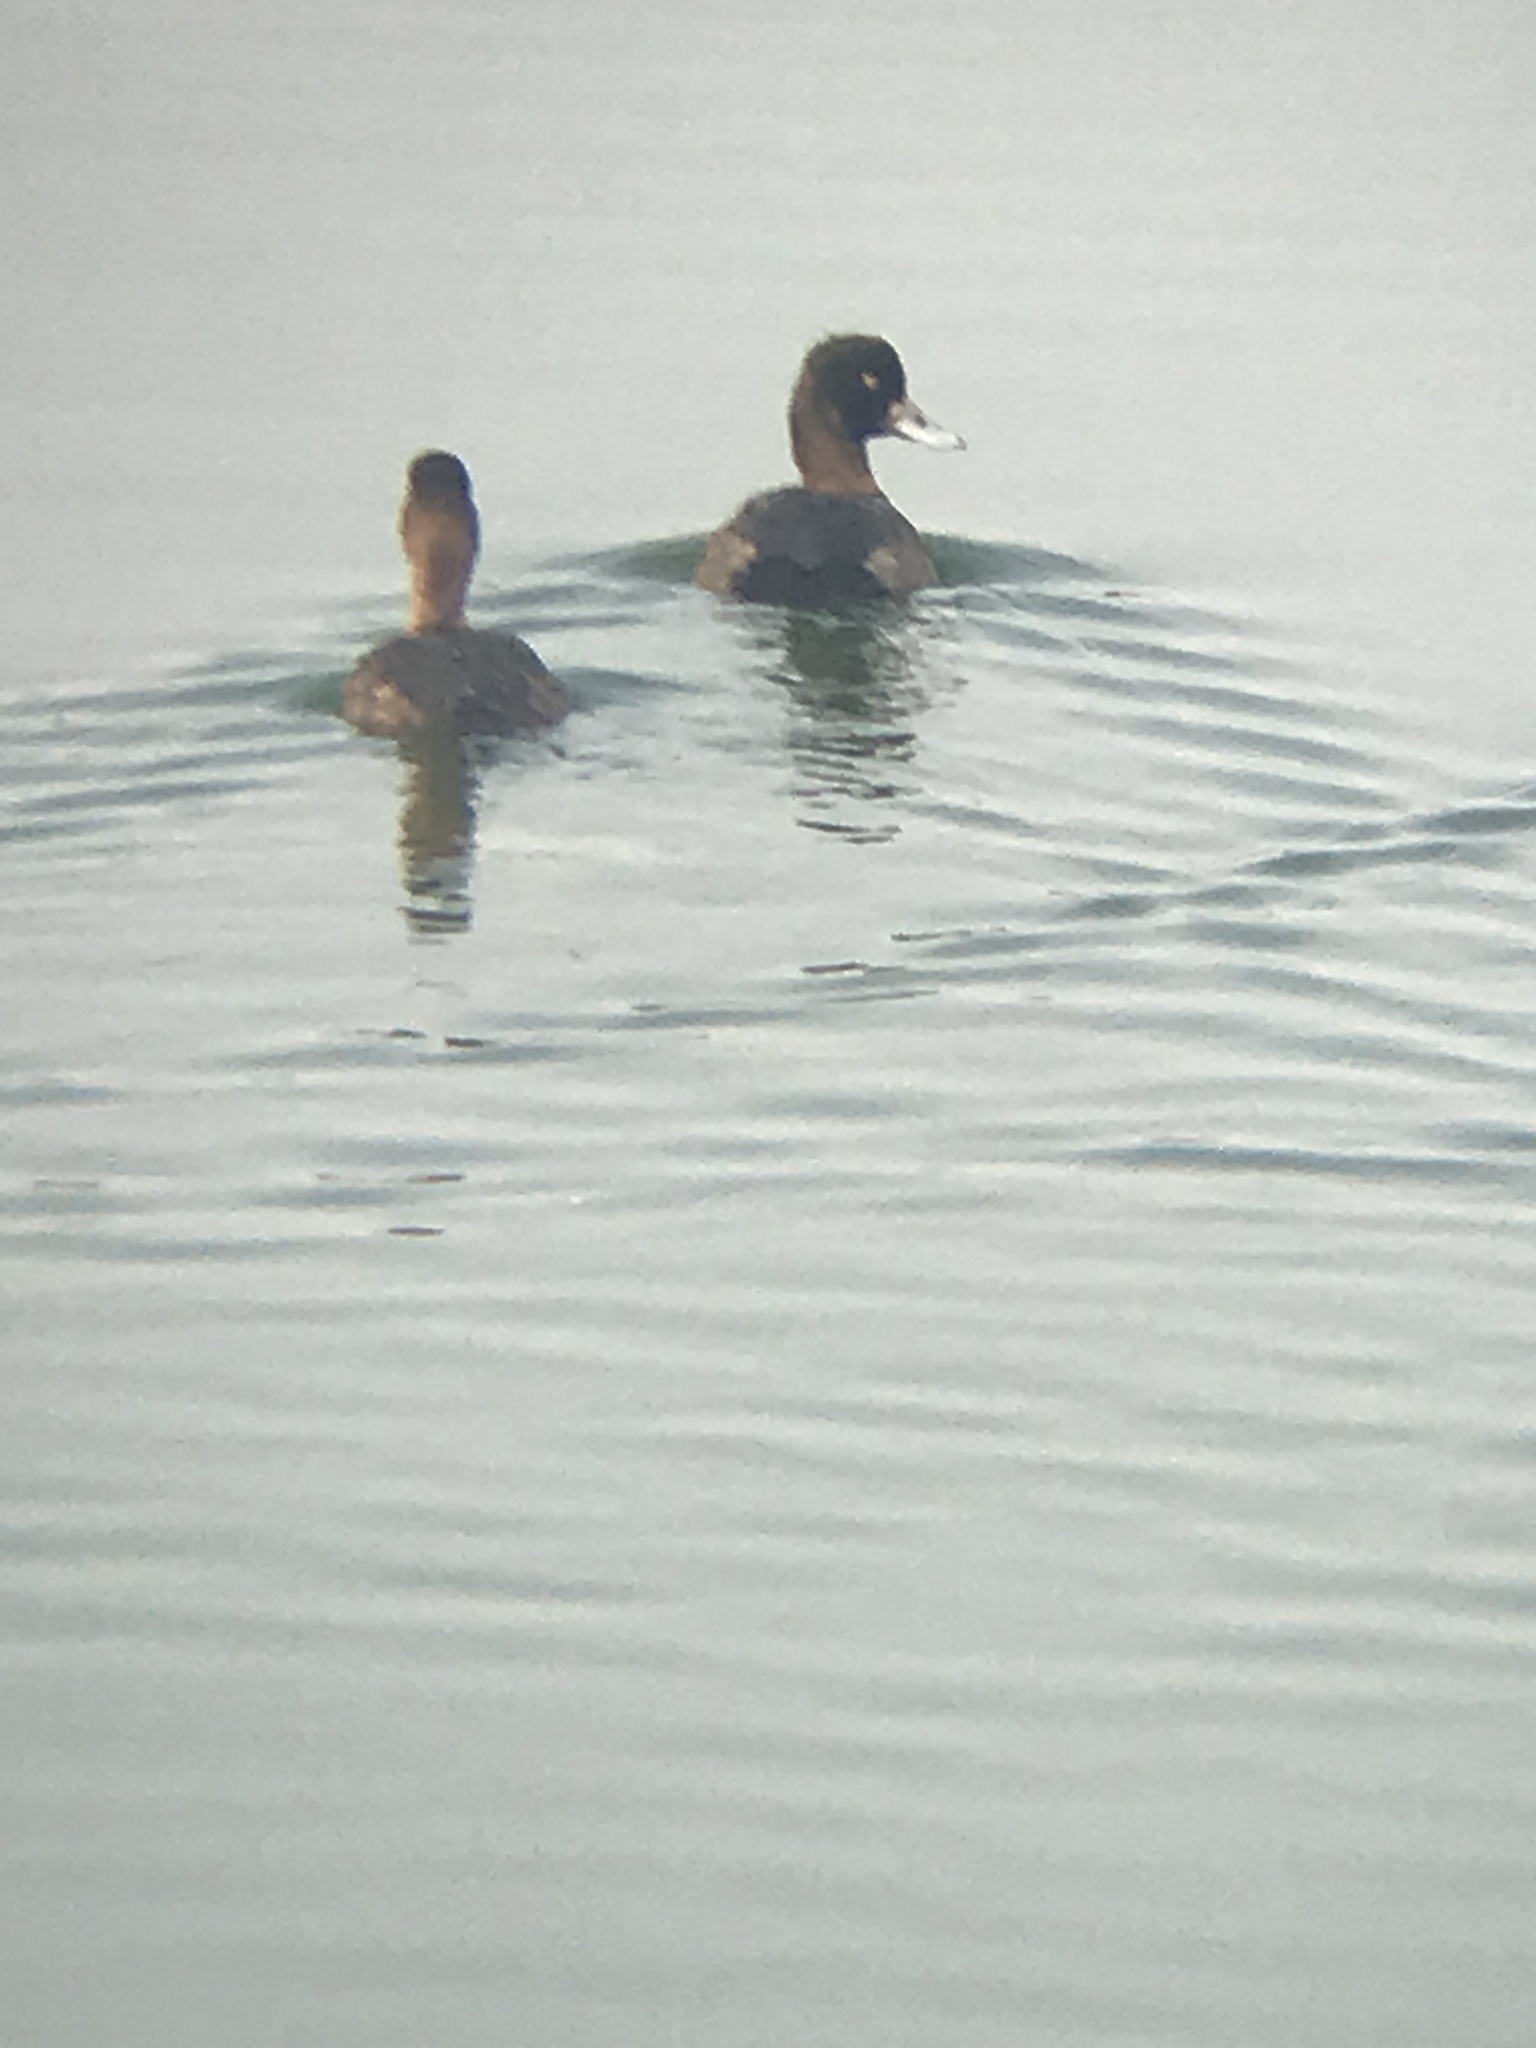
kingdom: Animalia
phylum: Chordata
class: Aves
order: Anseriformes
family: Anatidae
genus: Aythya
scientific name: Aythya affinis
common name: Lesser scaup
